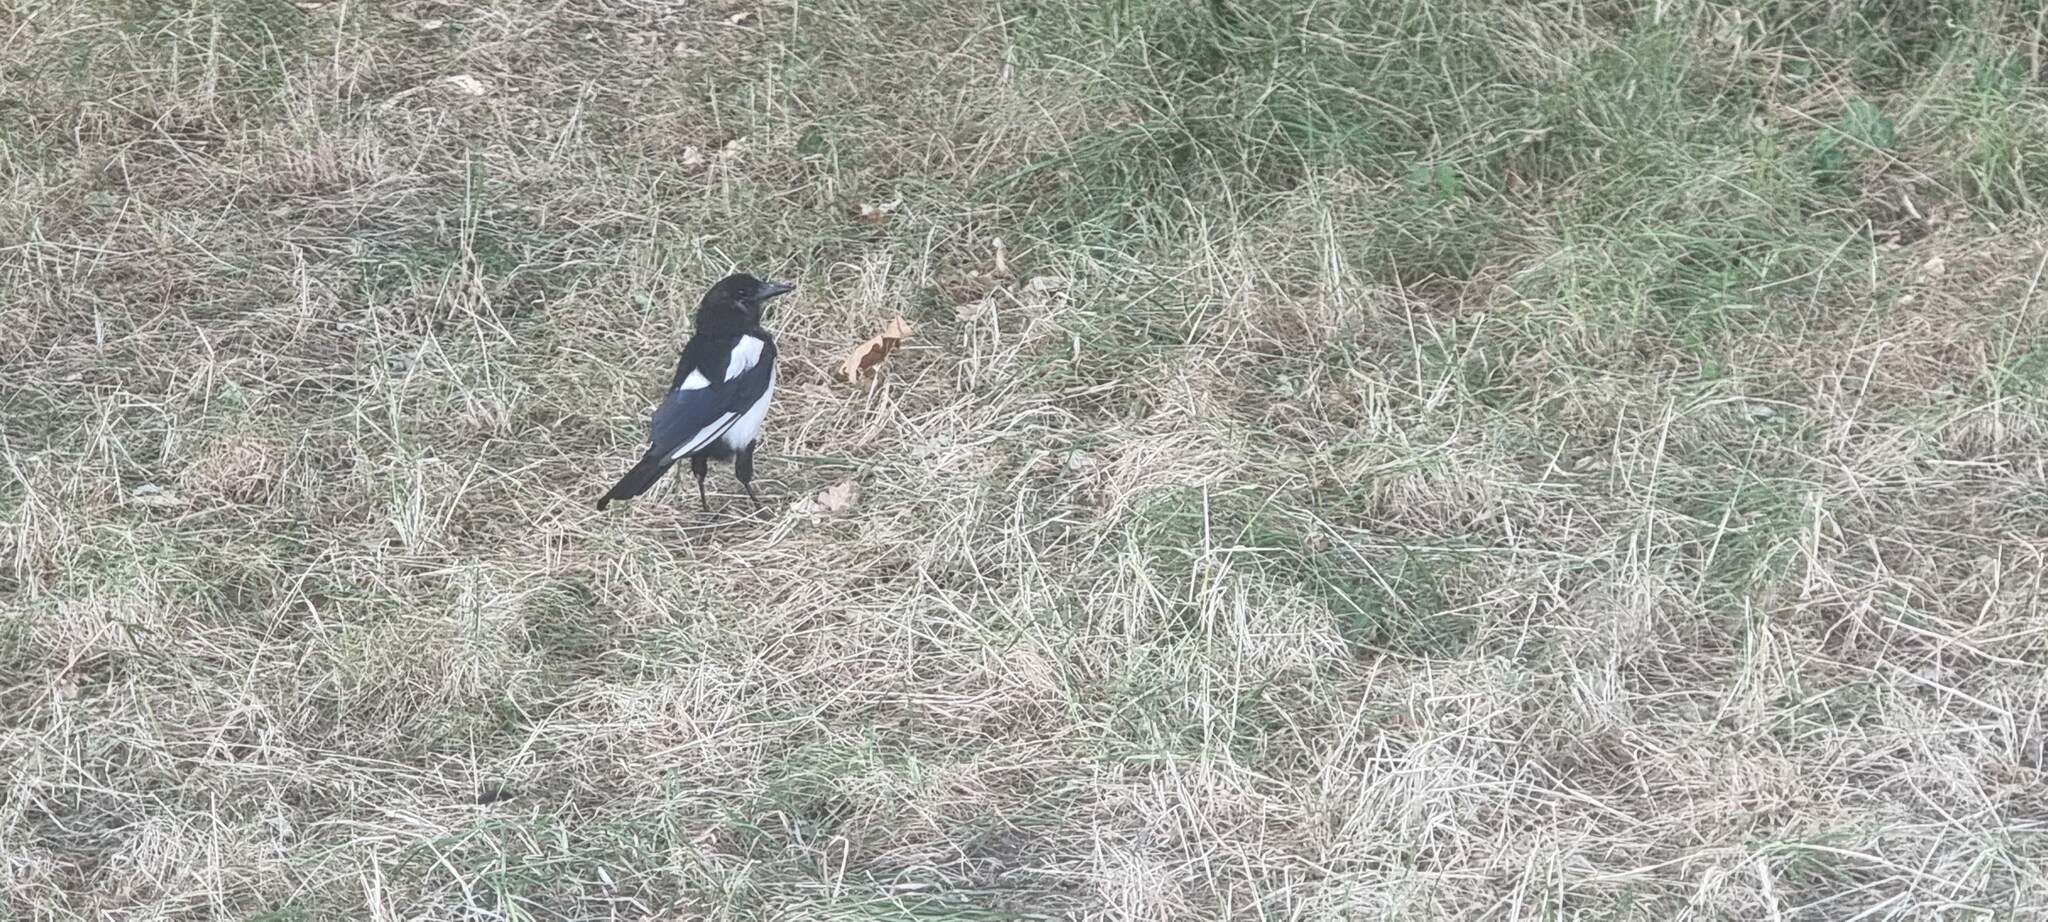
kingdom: Animalia
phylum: Chordata
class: Aves
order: Passeriformes
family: Corvidae
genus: Pica
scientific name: Pica pica
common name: Eurasian magpie
